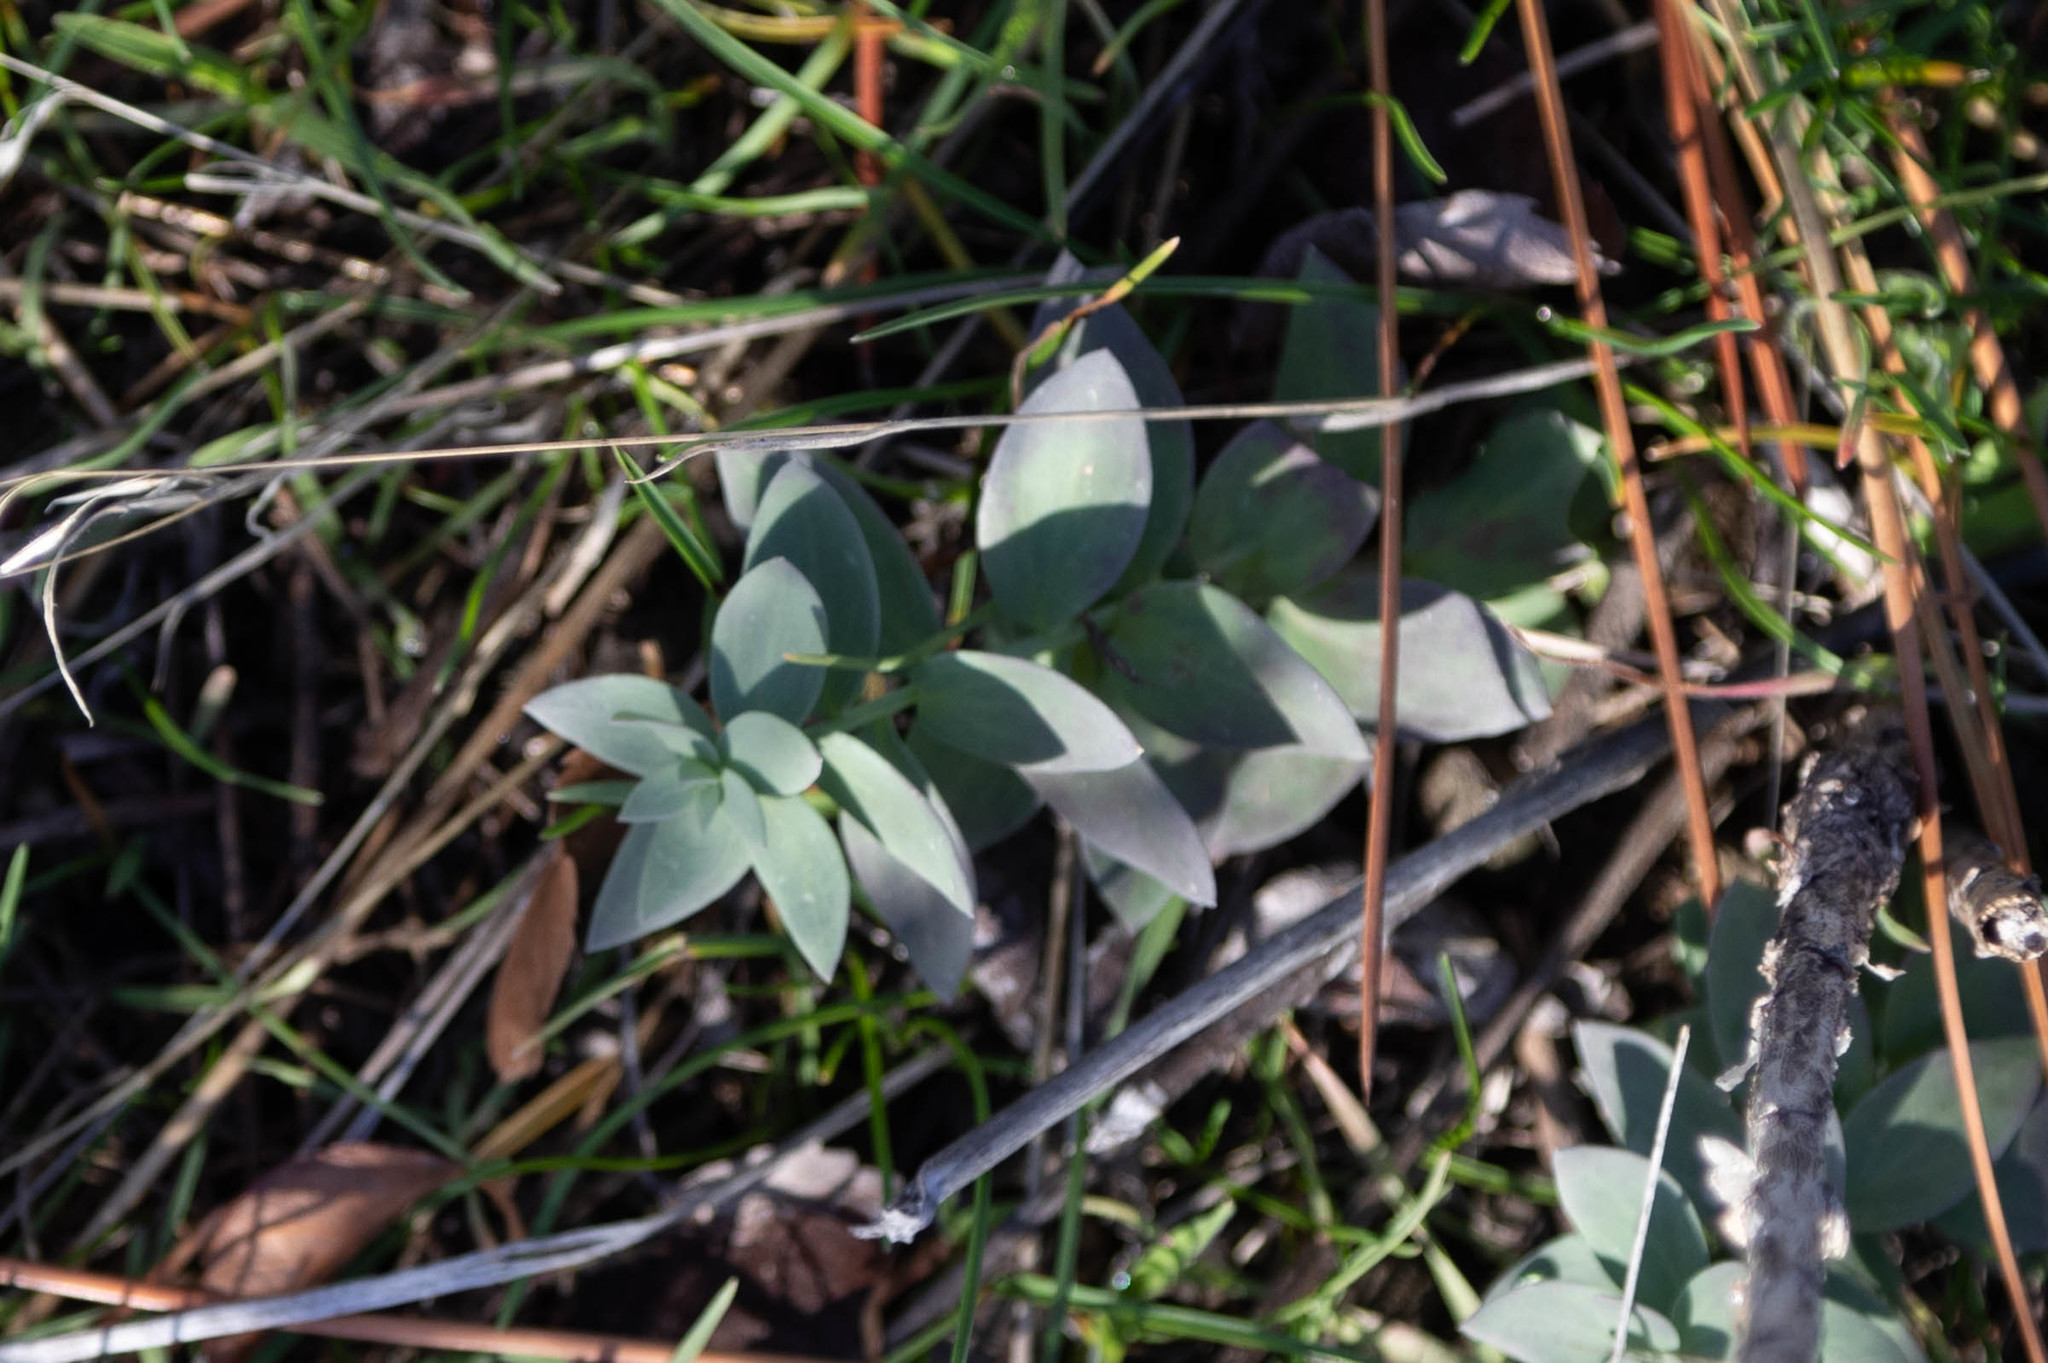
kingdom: Plantae
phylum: Tracheophyta
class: Magnoliopsida
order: Lamiales
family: Plantaginaceae
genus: Linaria
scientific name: Linaria dalmatica
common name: Dalmatian toadflax
